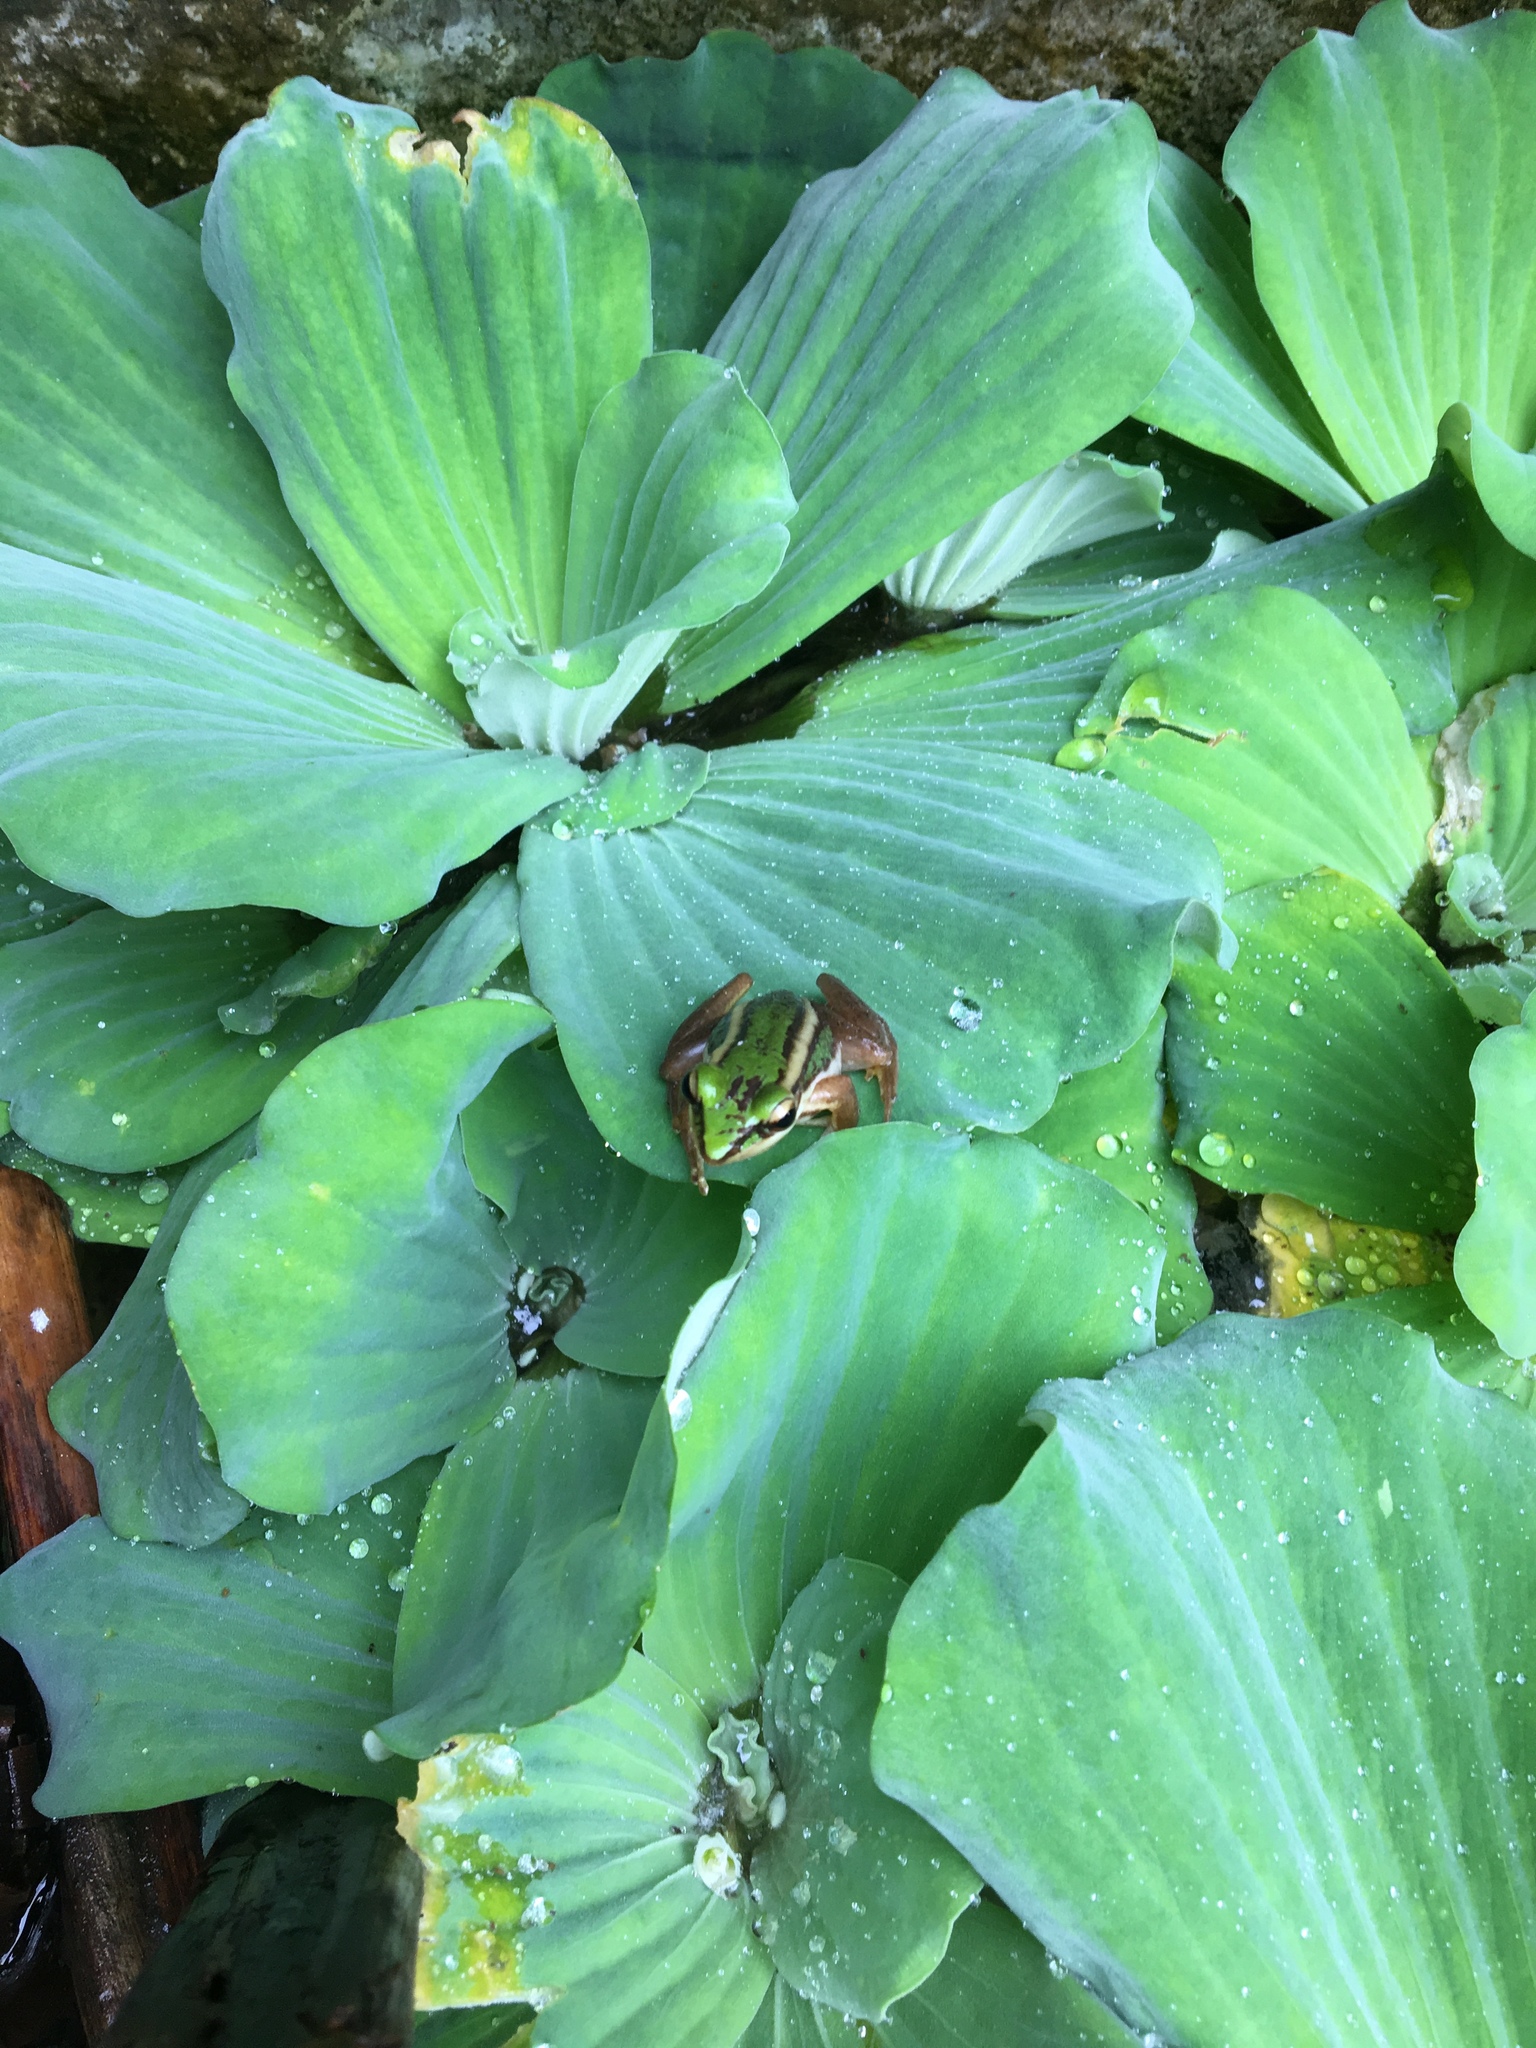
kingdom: Animalia
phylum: Chordata
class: Amphibia
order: Anura
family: Ranidae
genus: Hylarana
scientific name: Hylarana erythraea
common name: Common green frog/green paddy frog/leaf frog
